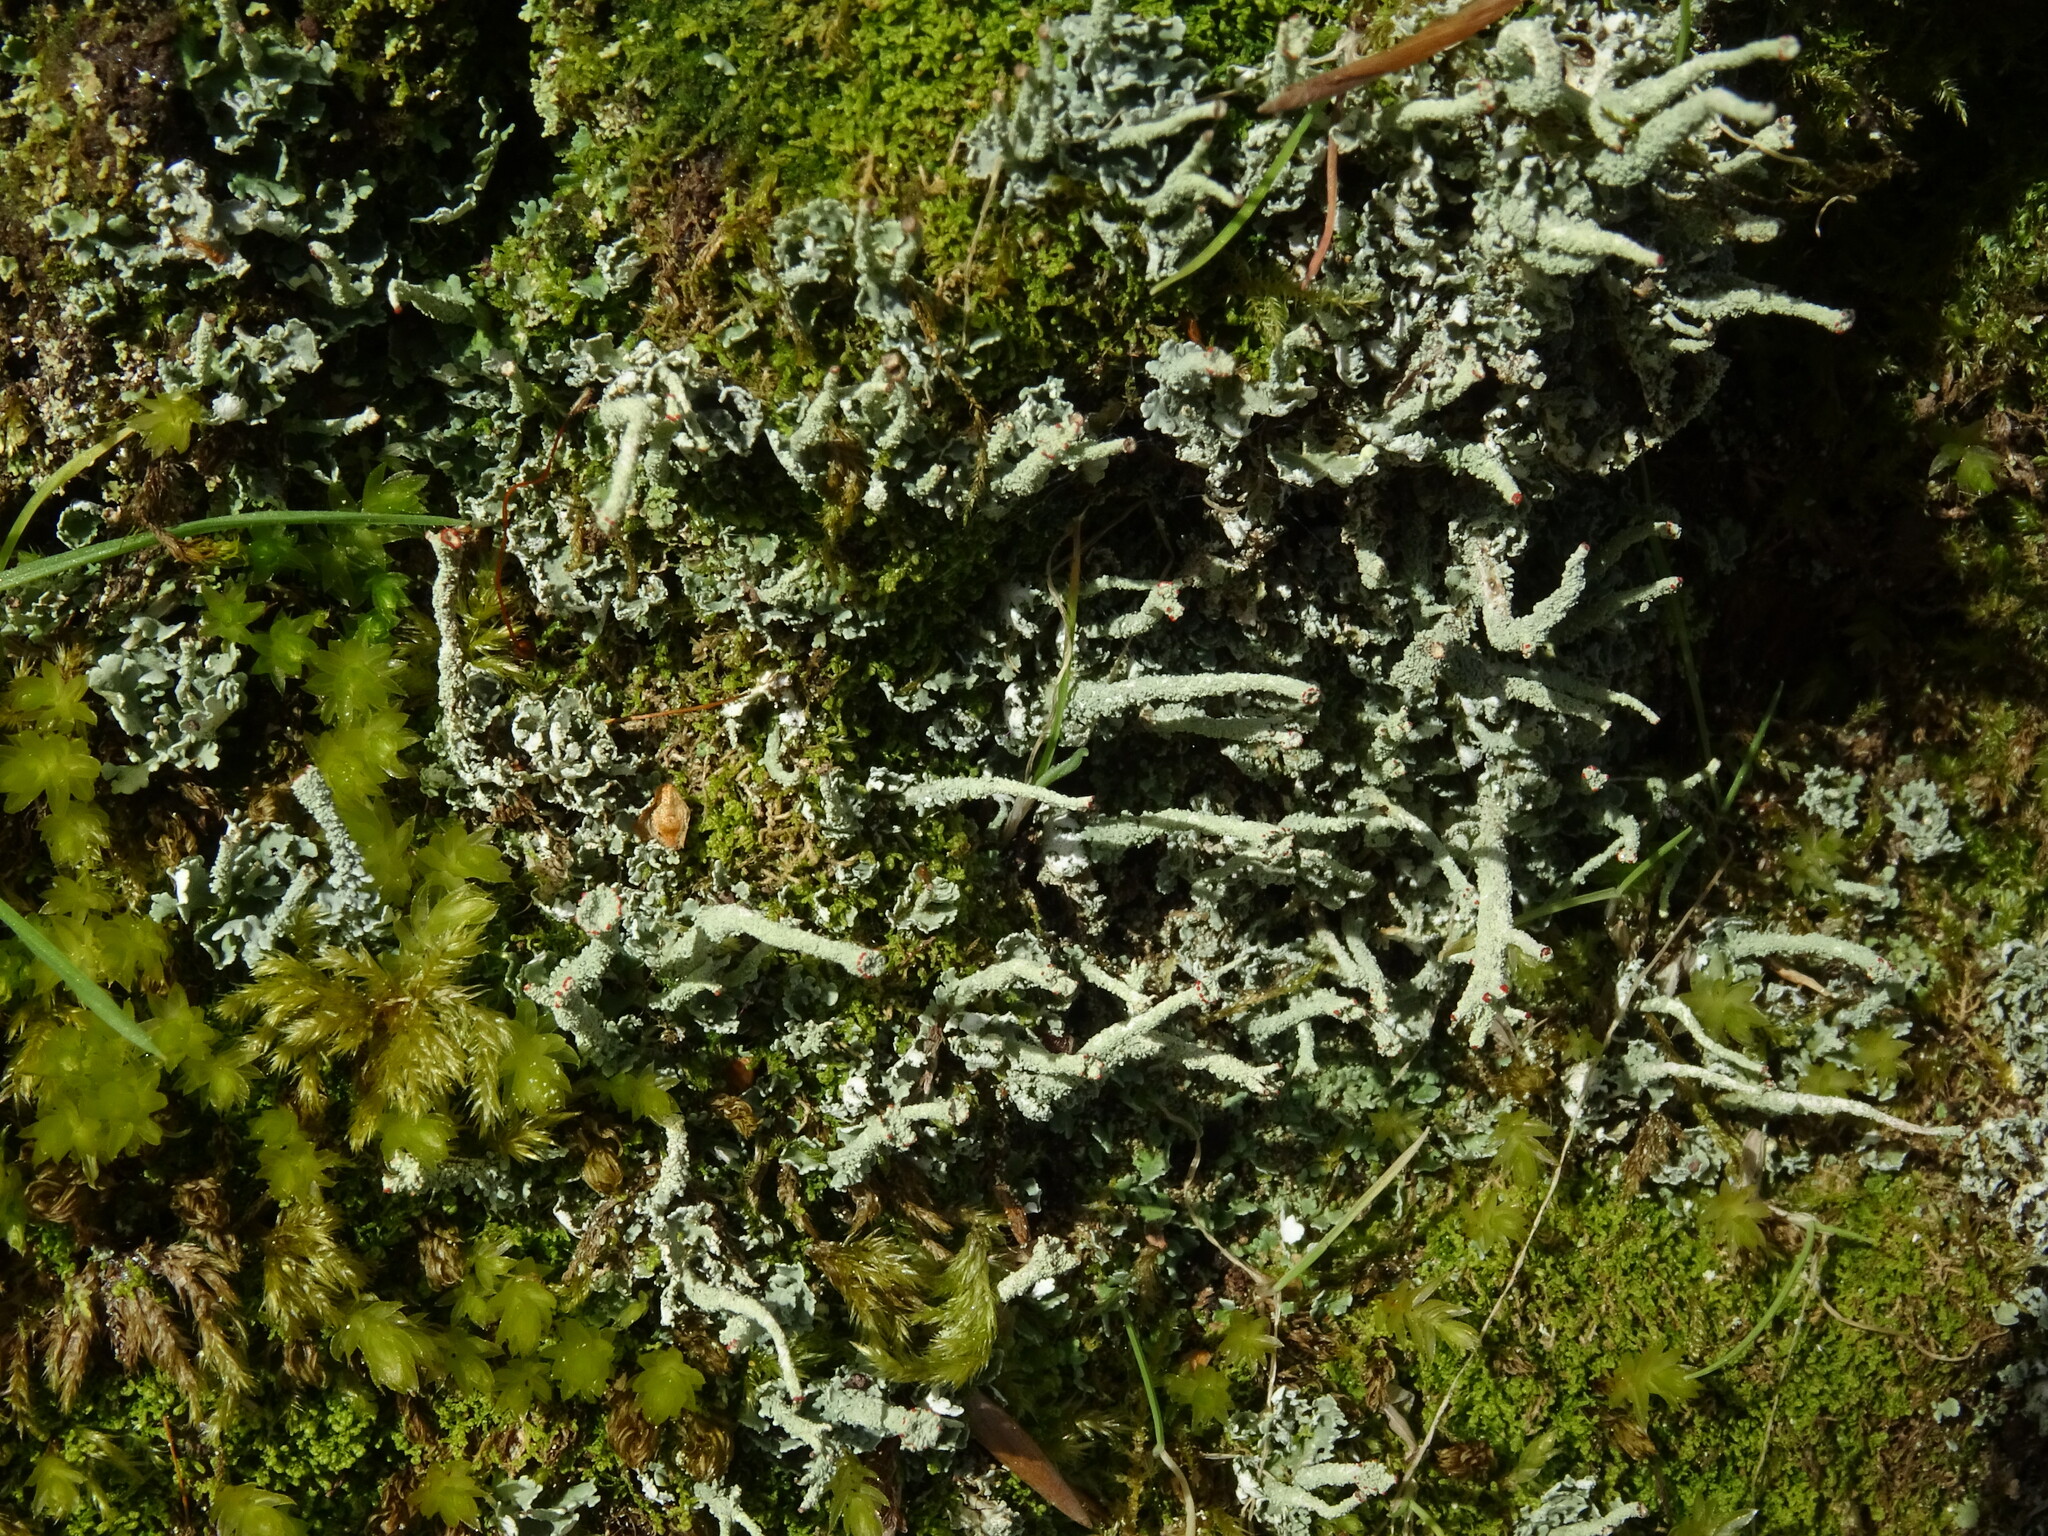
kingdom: Fungi
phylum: Ascomycota
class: Lecanoromycetes
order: Lecanorales
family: Cladoniaceae
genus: Cladonia
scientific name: Cladonia polydactyla
